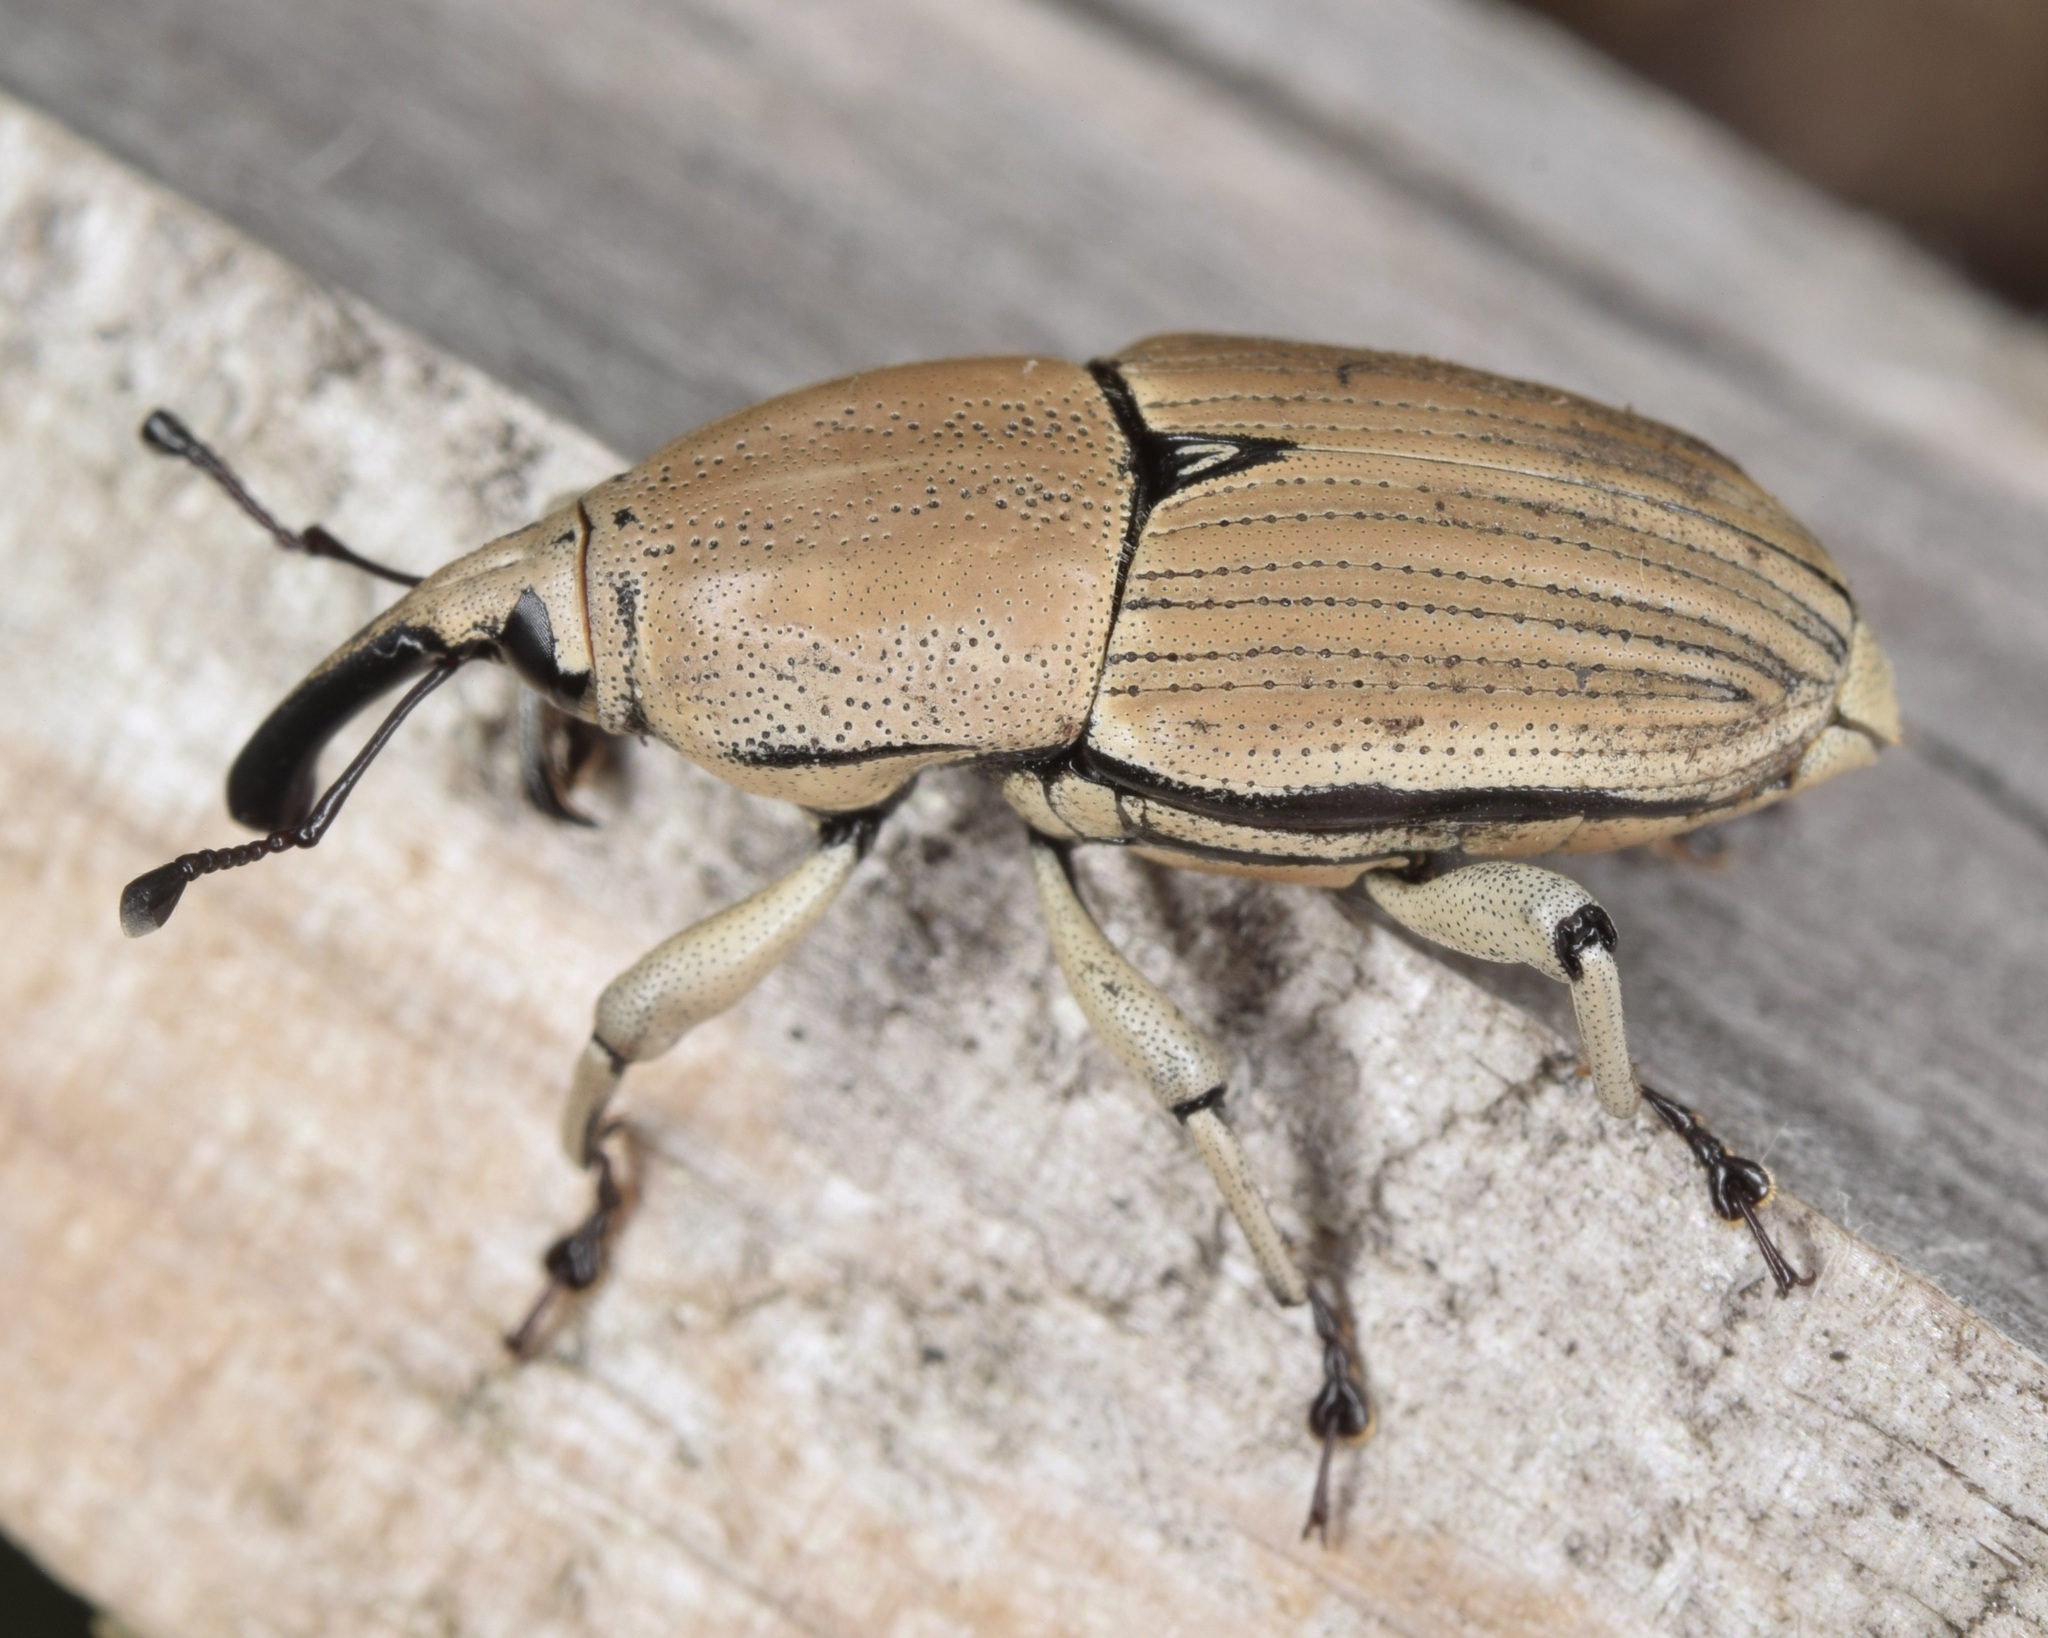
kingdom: Animalia
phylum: Arthropoda
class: Insecta
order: Coleoptera
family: Dryophthoridae
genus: Sphenophorus
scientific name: Sphenophorus aequalis
